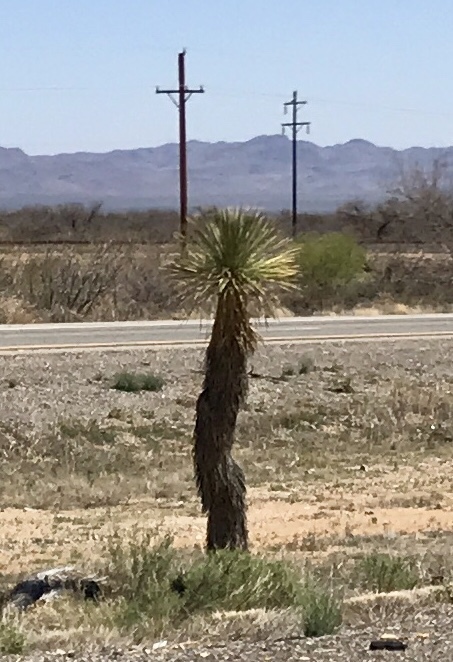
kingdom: Plantae
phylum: Tracheophyta
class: Liliopsida
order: Asparagales
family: Asparagaceae
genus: Yucca
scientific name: Yucca elata
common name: Palmella
